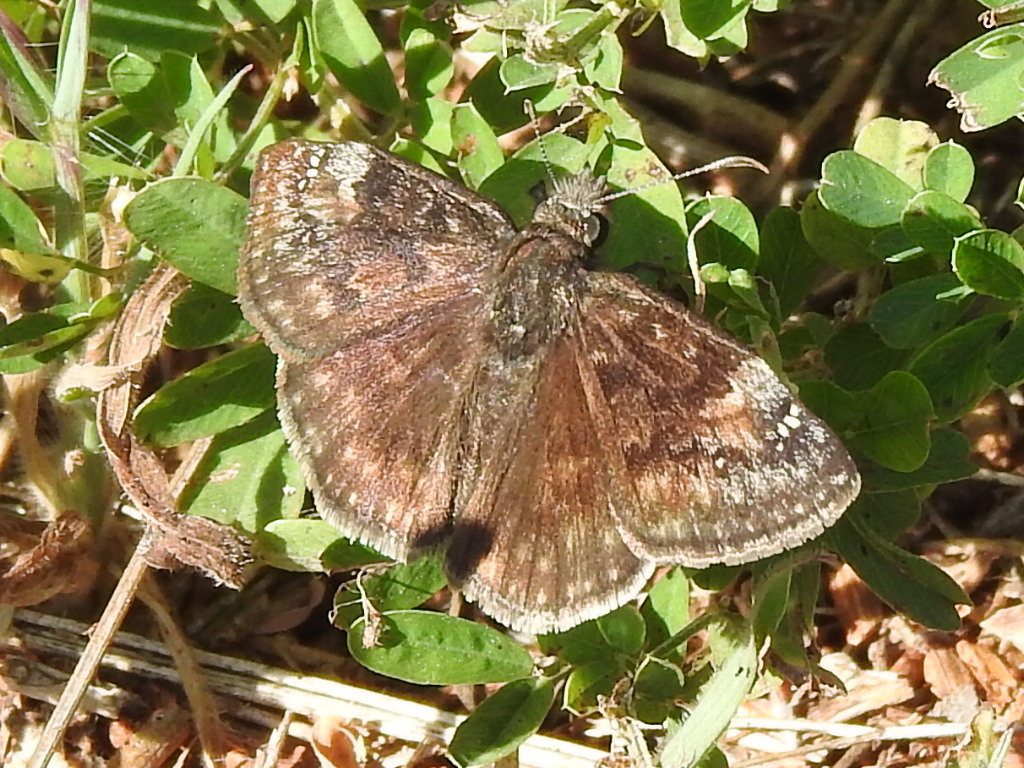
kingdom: Animalia
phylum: Arthropoda
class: Insecta
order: Lepidoptera
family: Hesperiidae
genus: Erynnis
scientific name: Erynnis baptisiae
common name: Wild indigo duskywing
